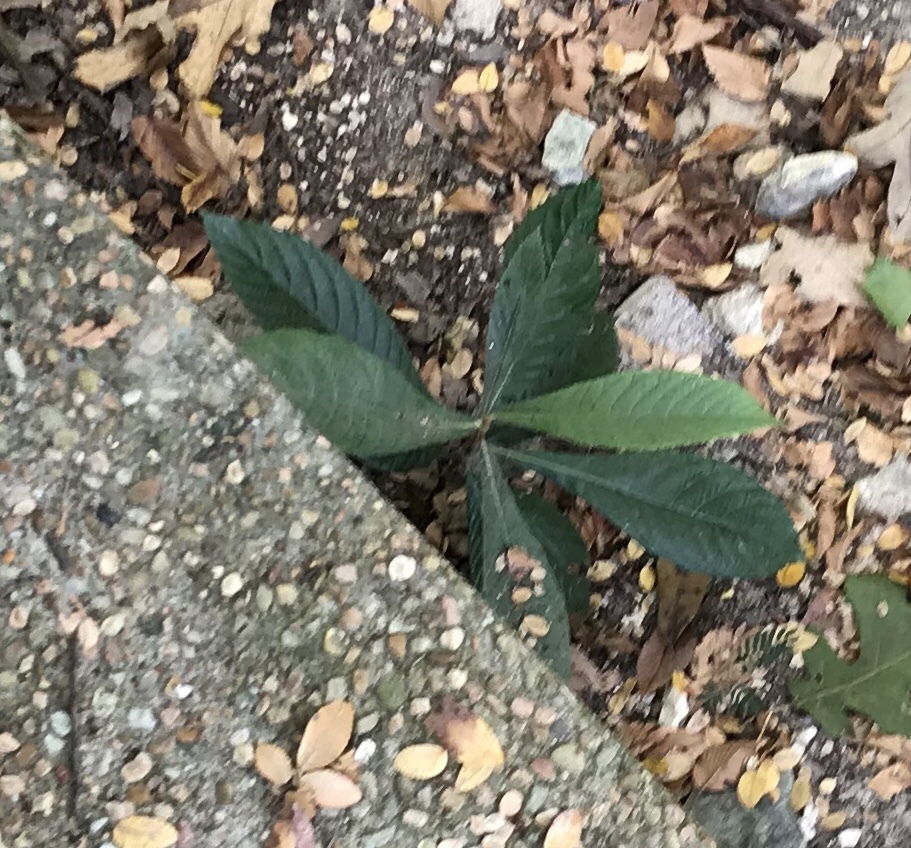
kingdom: Plantae
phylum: Tracheophyta
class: Magnoliopsida
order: Rosales
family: Rosaceae
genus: Rhaphiolepis
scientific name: Rhaphiolepis bibas
